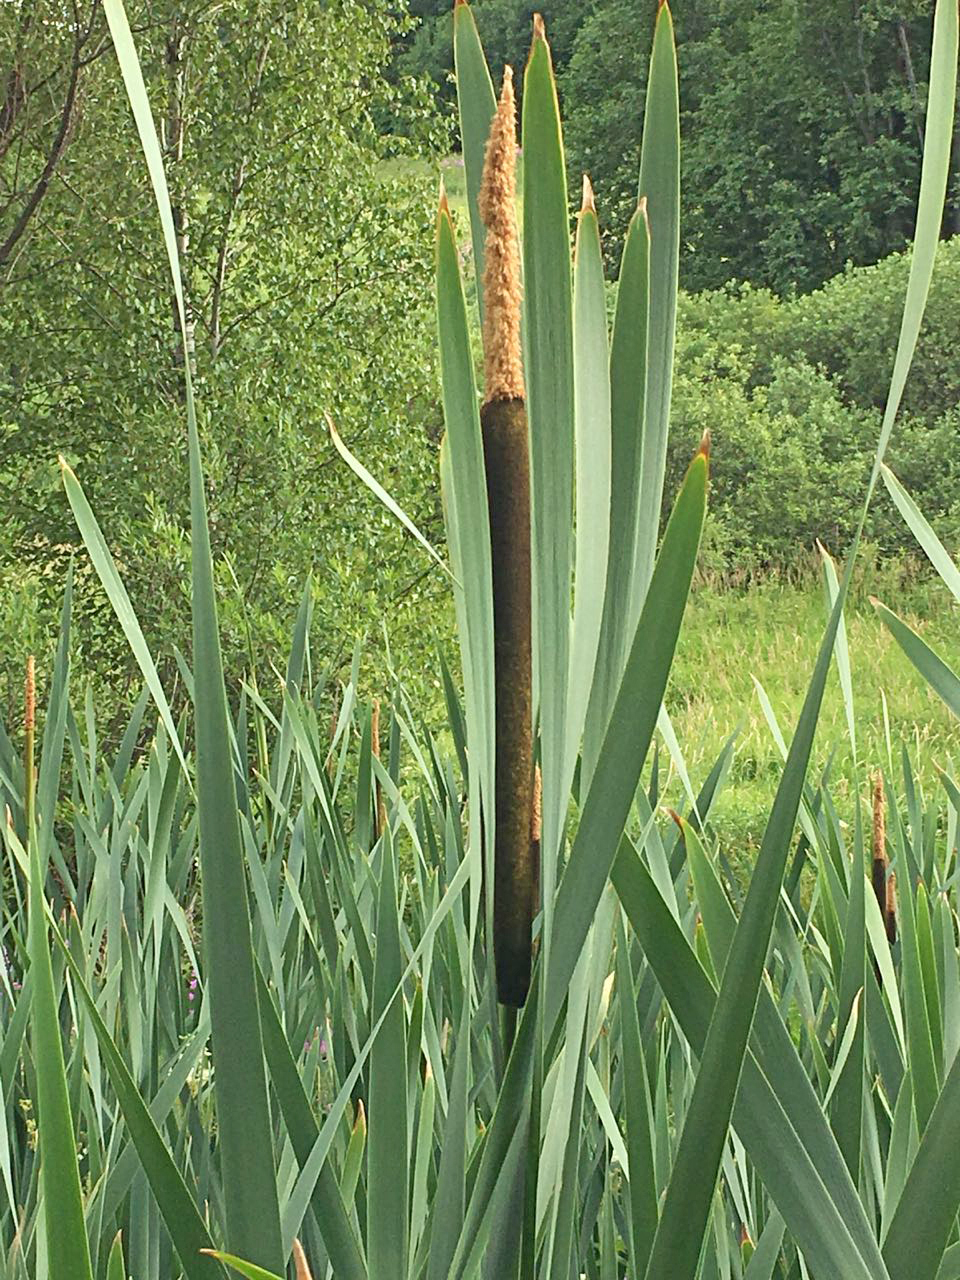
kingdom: Plantae
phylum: Tracheophyta
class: Liliopsida
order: Poales
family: Typhaceae
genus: Typha
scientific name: Typha latifolia
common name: Broadleaf cattail
